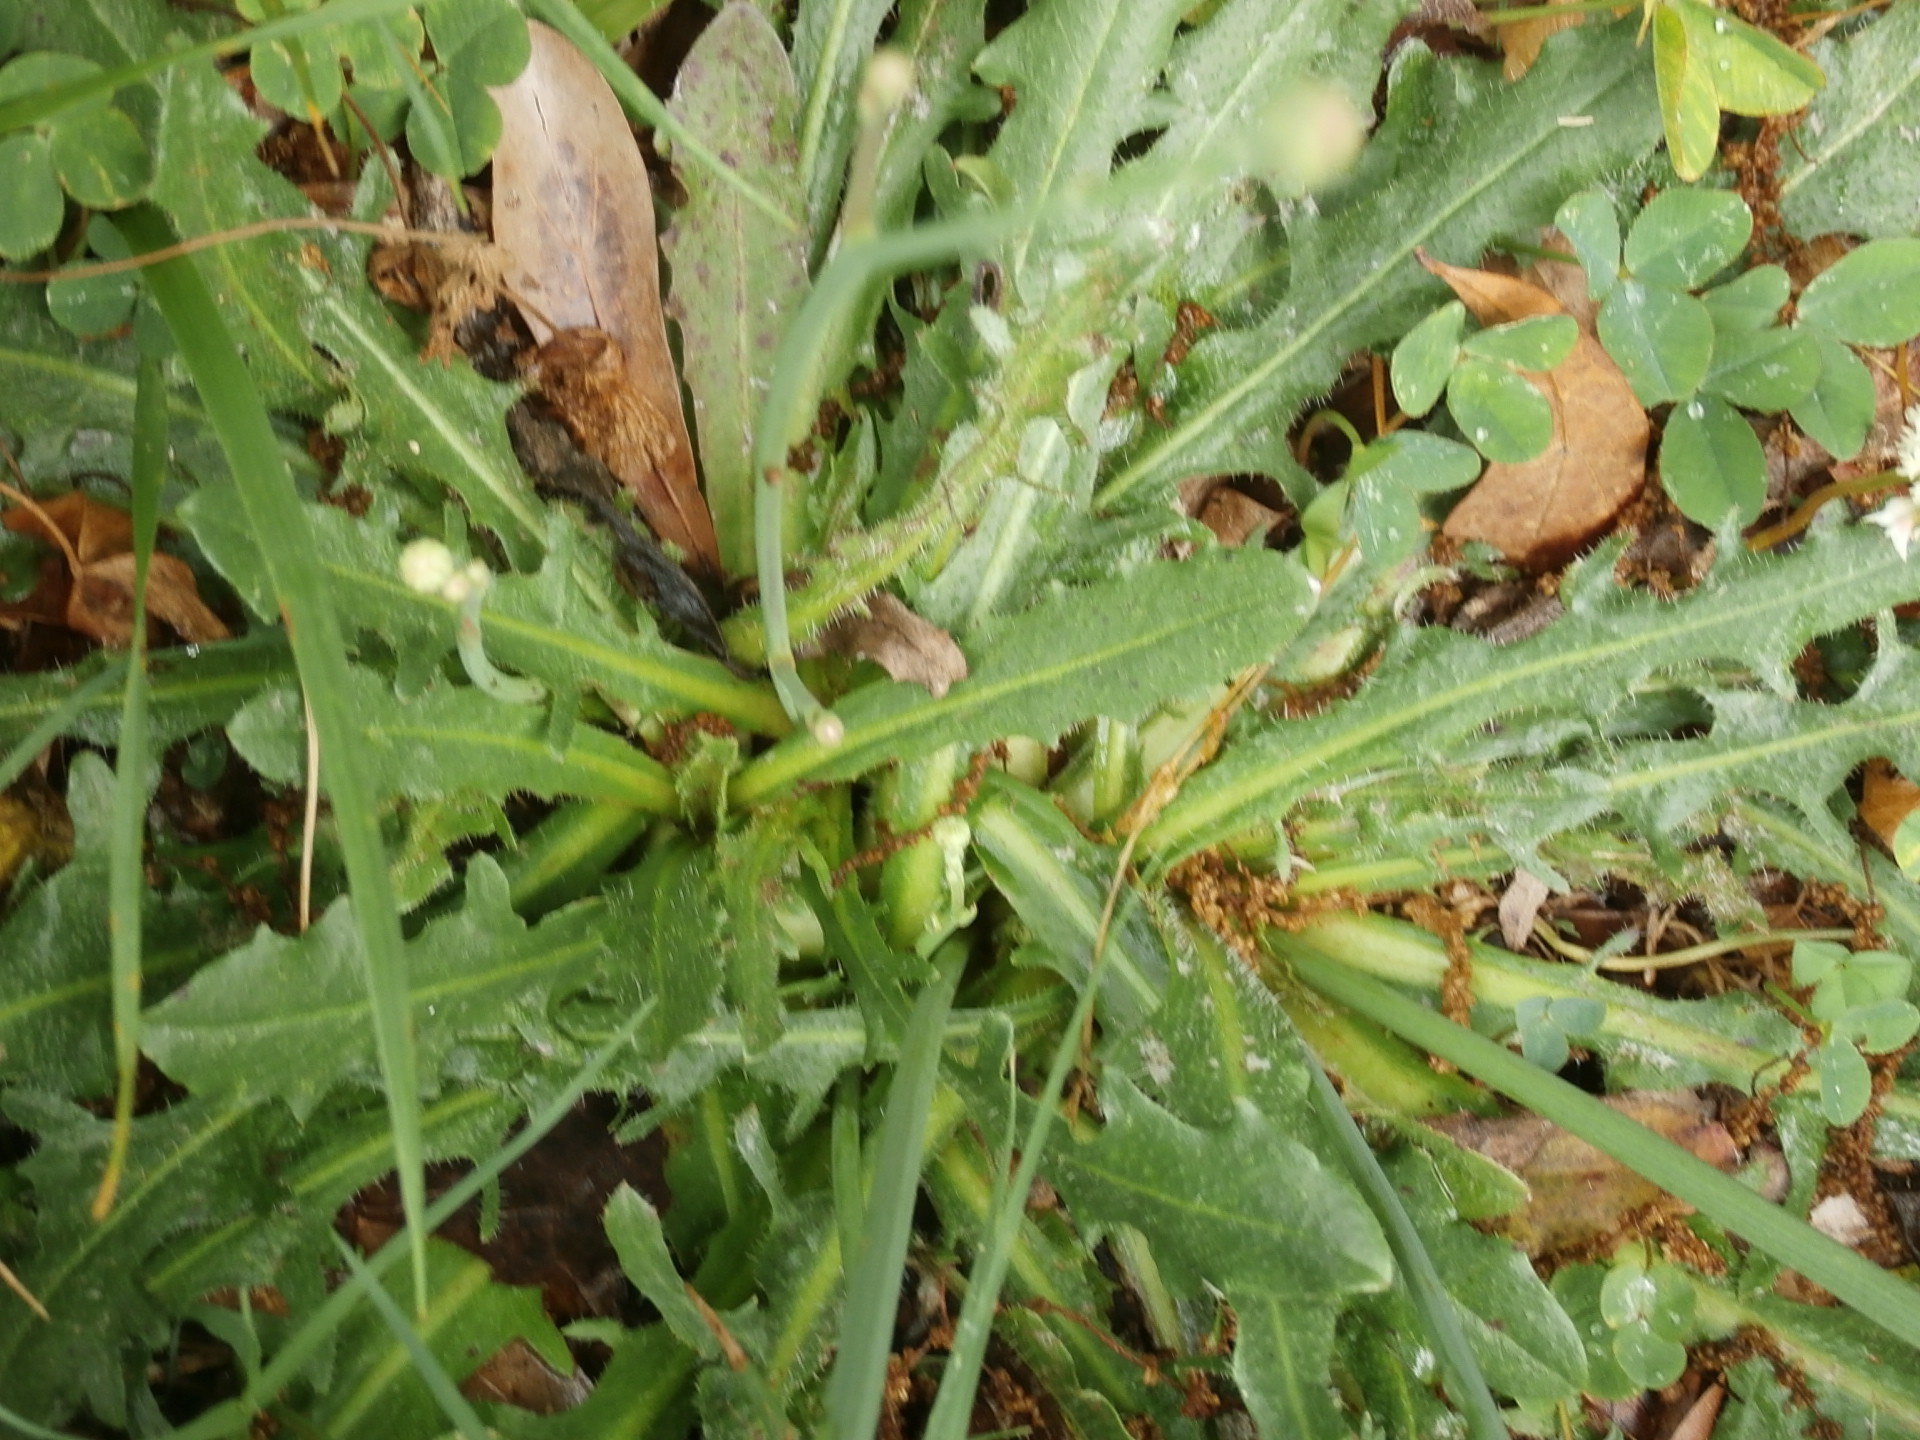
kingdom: Plantae
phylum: Tracheophyta
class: Magnoliopsida
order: Asterales
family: Asteraceae
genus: Hypochaeris
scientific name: Hypochaeris radicata
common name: Flatweed
